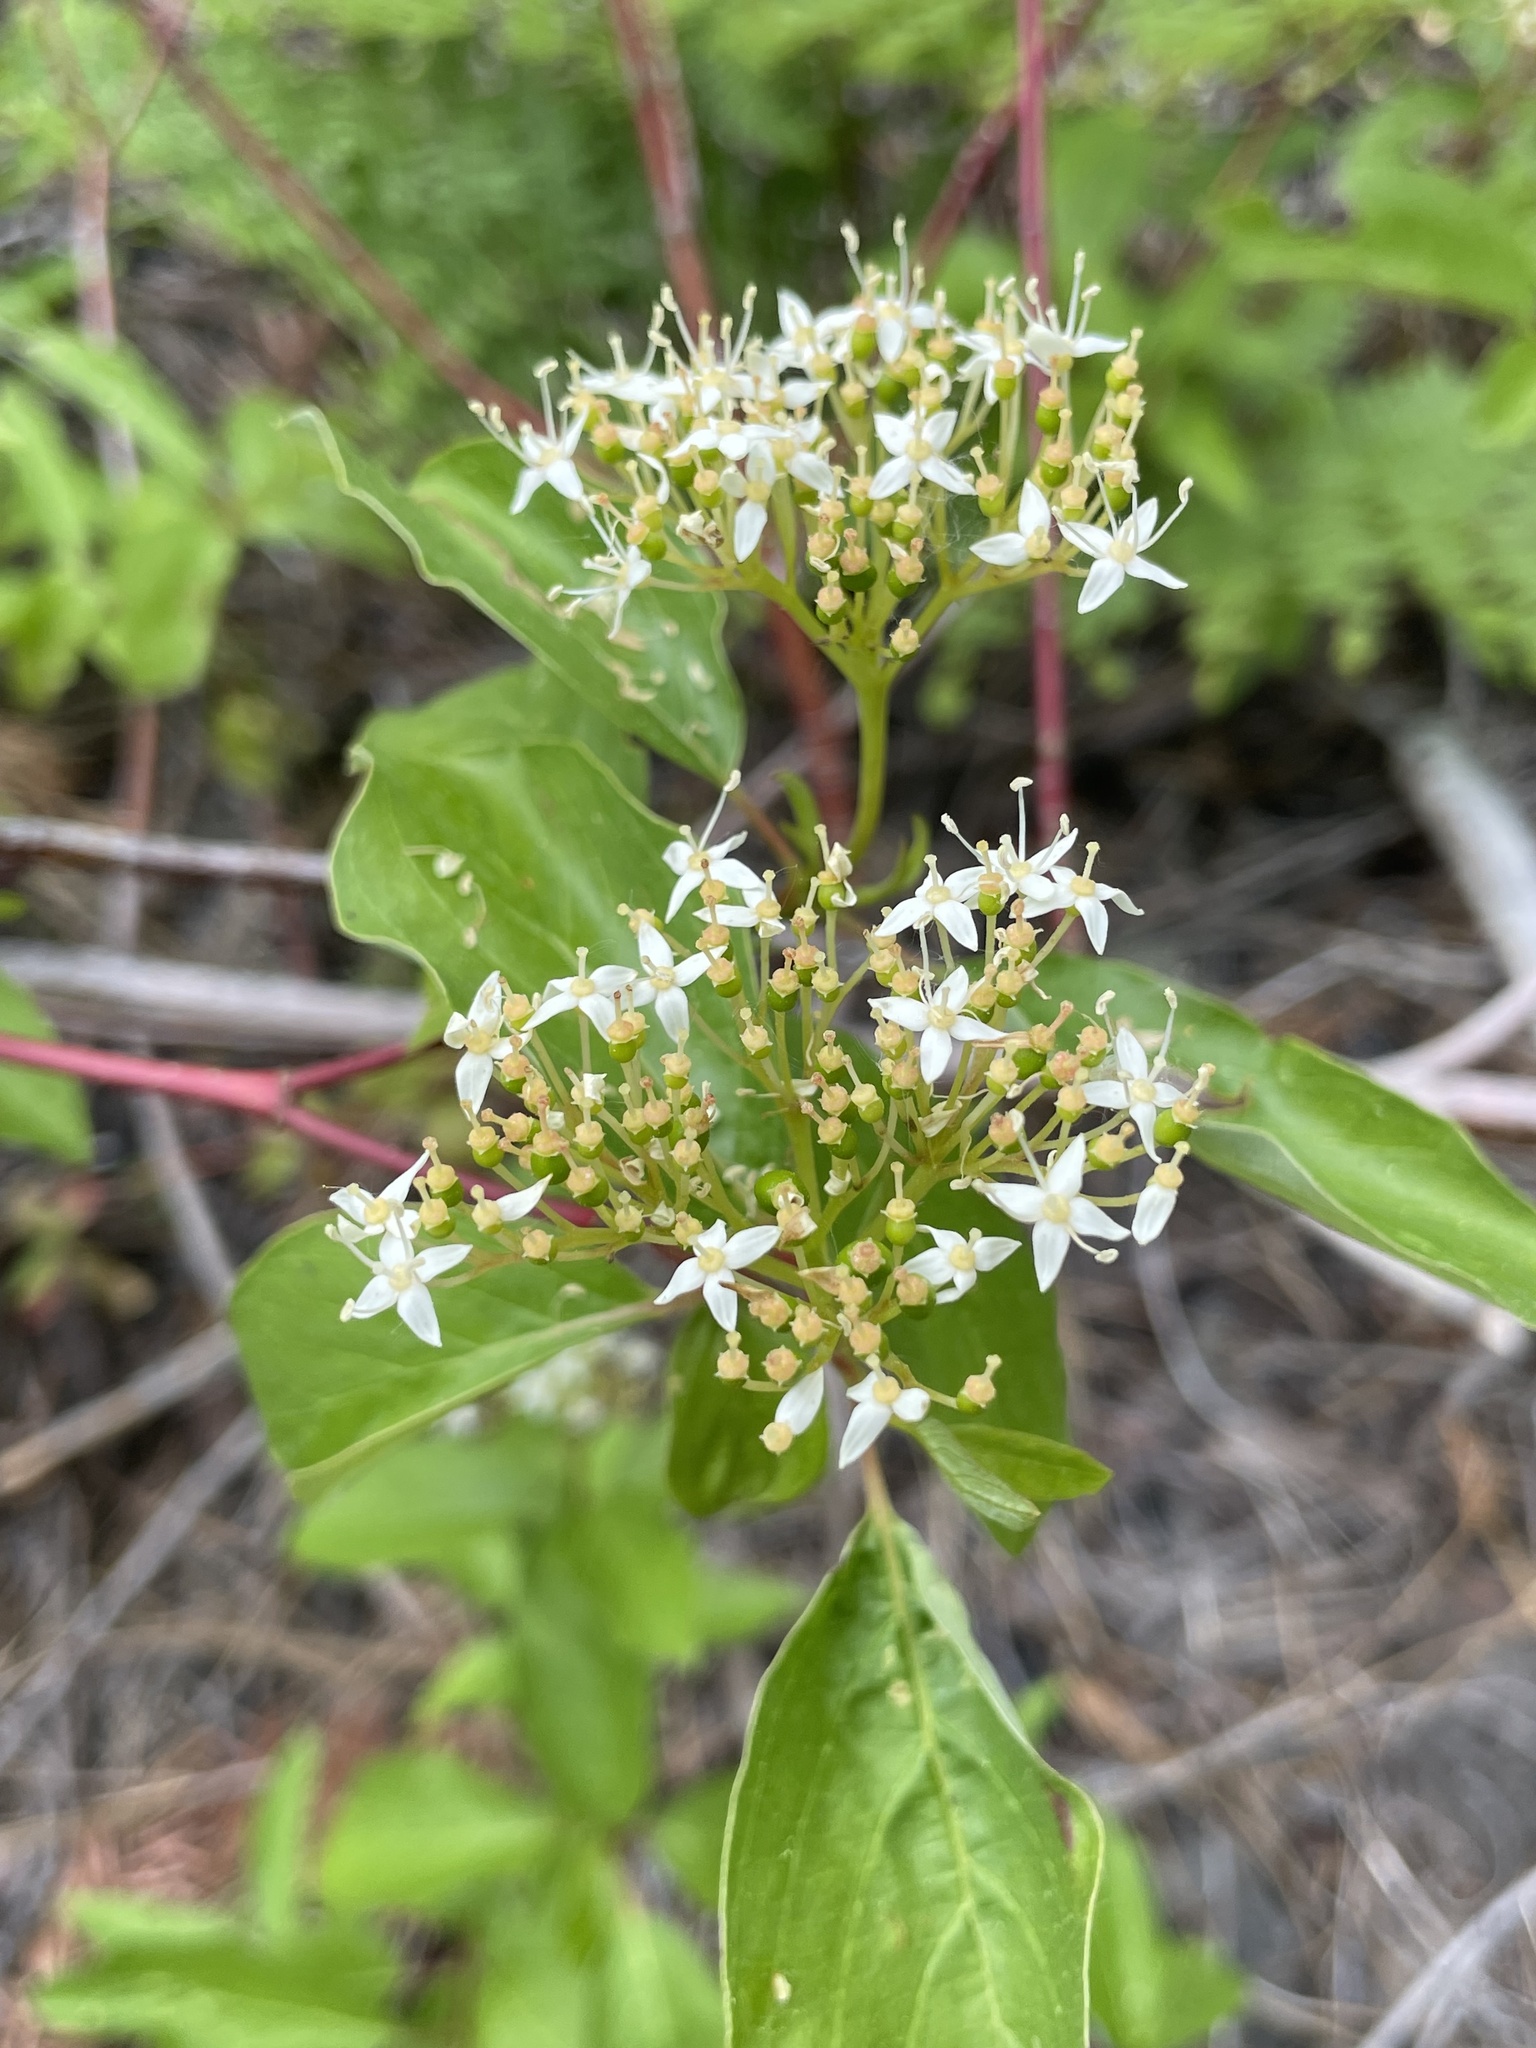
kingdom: Plantae
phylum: Tracheophyta
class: Magnoliopsida
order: Cornales
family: Cornaceae
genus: Cornus
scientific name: Cornus sericea
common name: Red-osier dogwood
